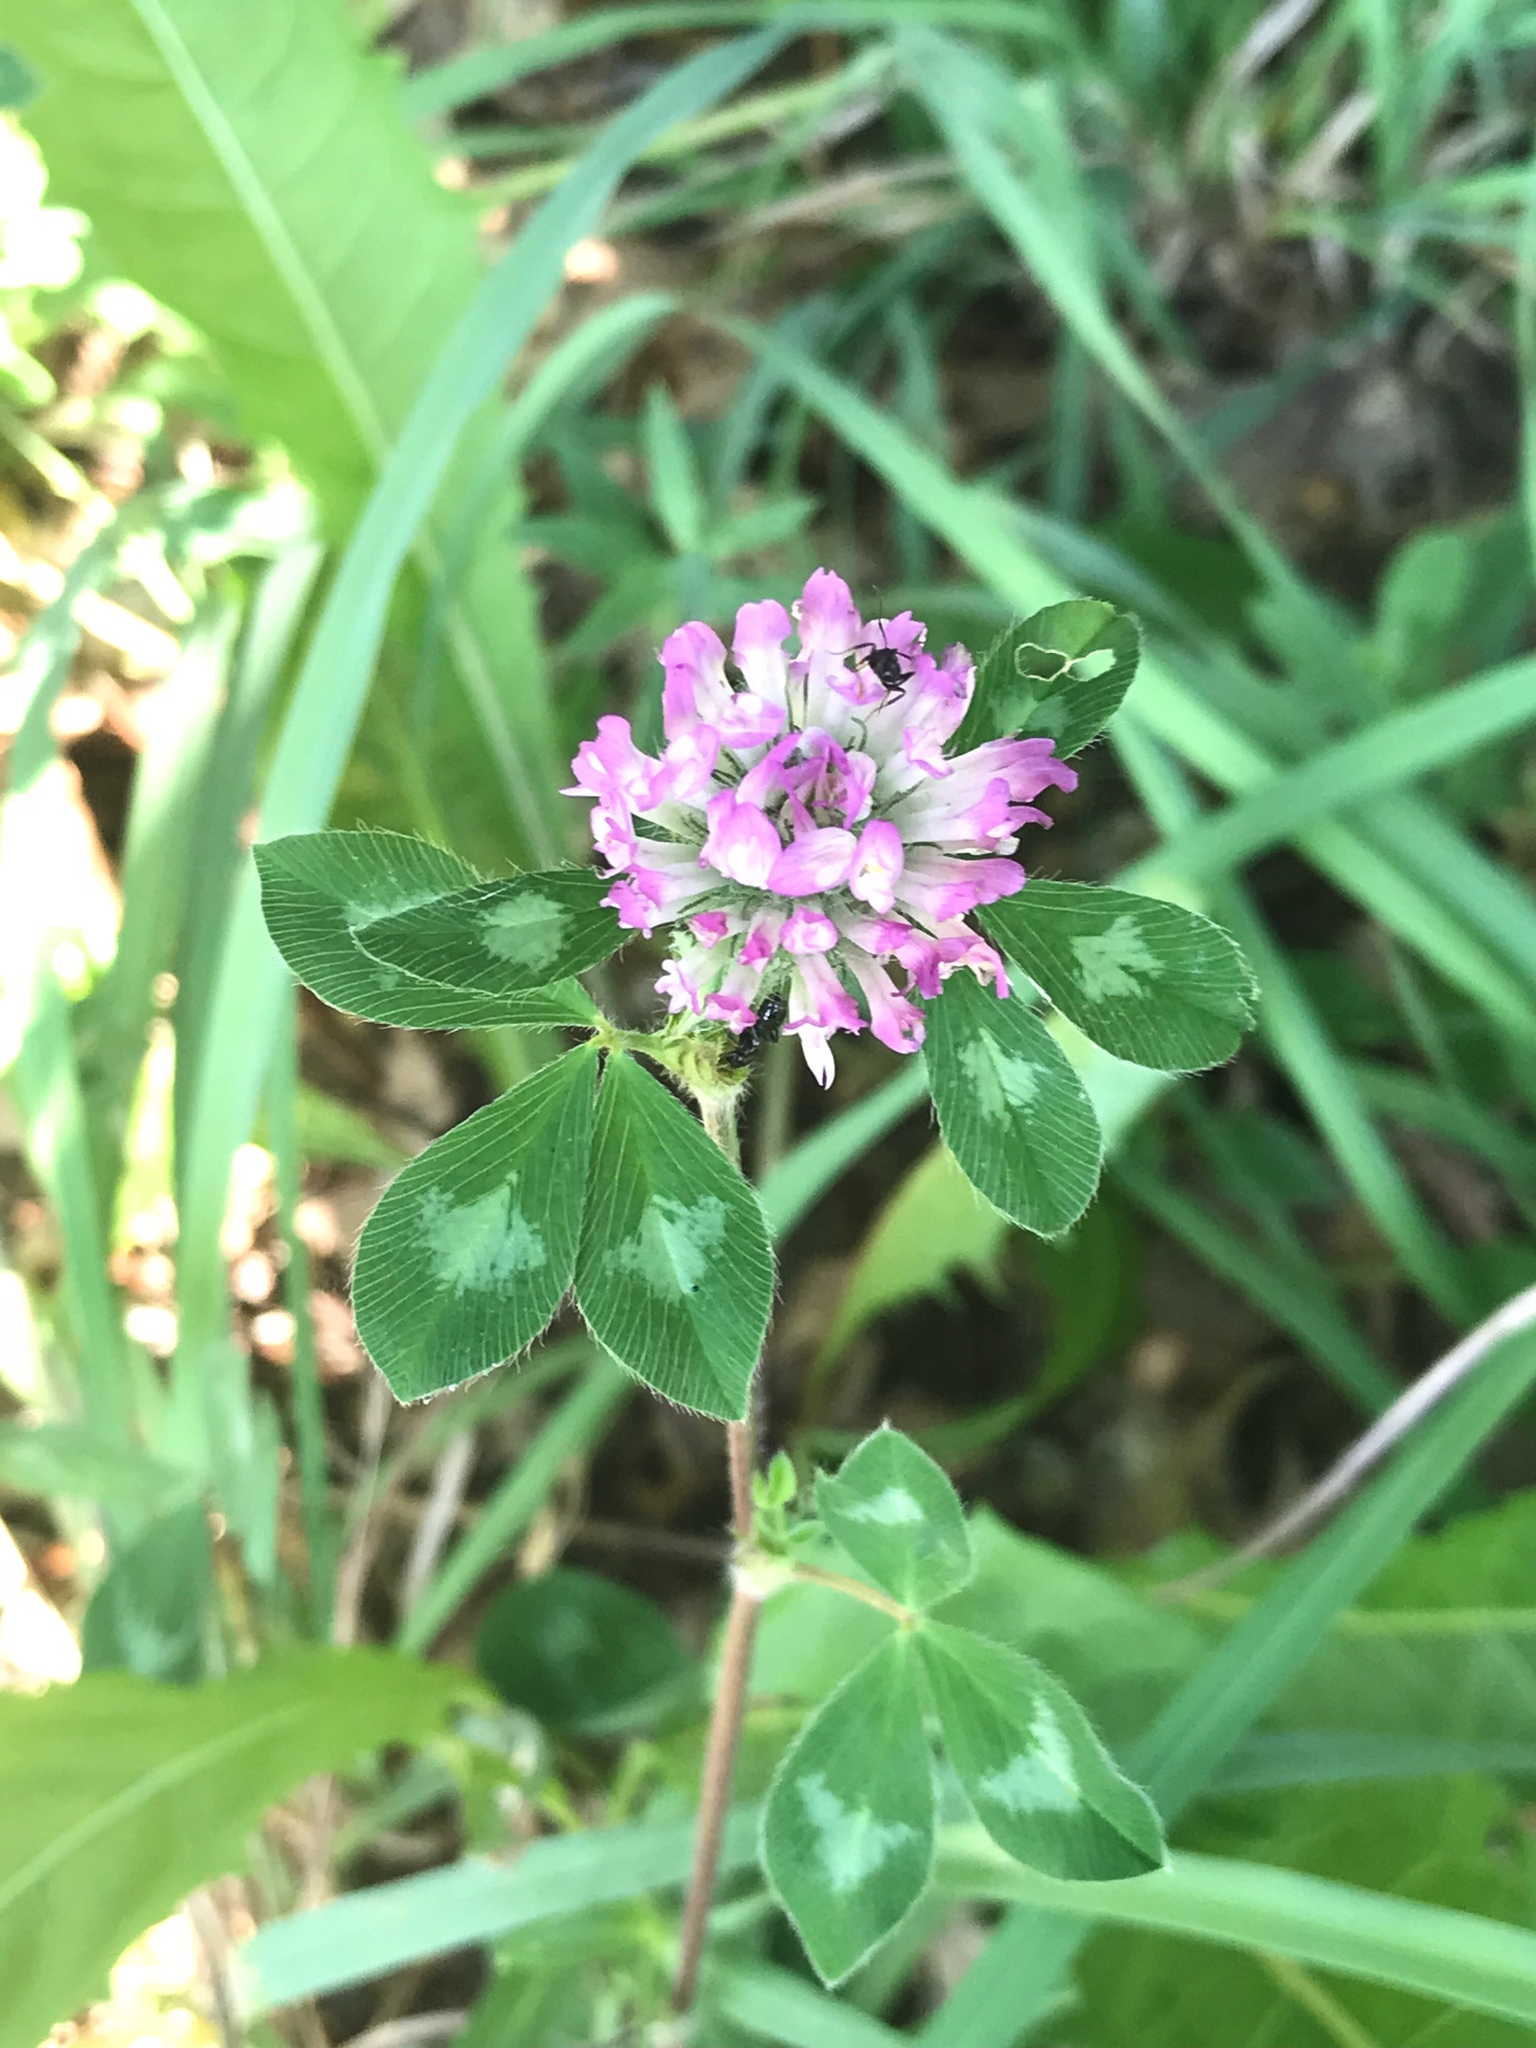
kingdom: Plantae
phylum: Tracheophyta
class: Magnoliopsida
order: Fabales
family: Fabaceae
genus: Trifolium
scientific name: Trifolium pratense
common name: Red clover
